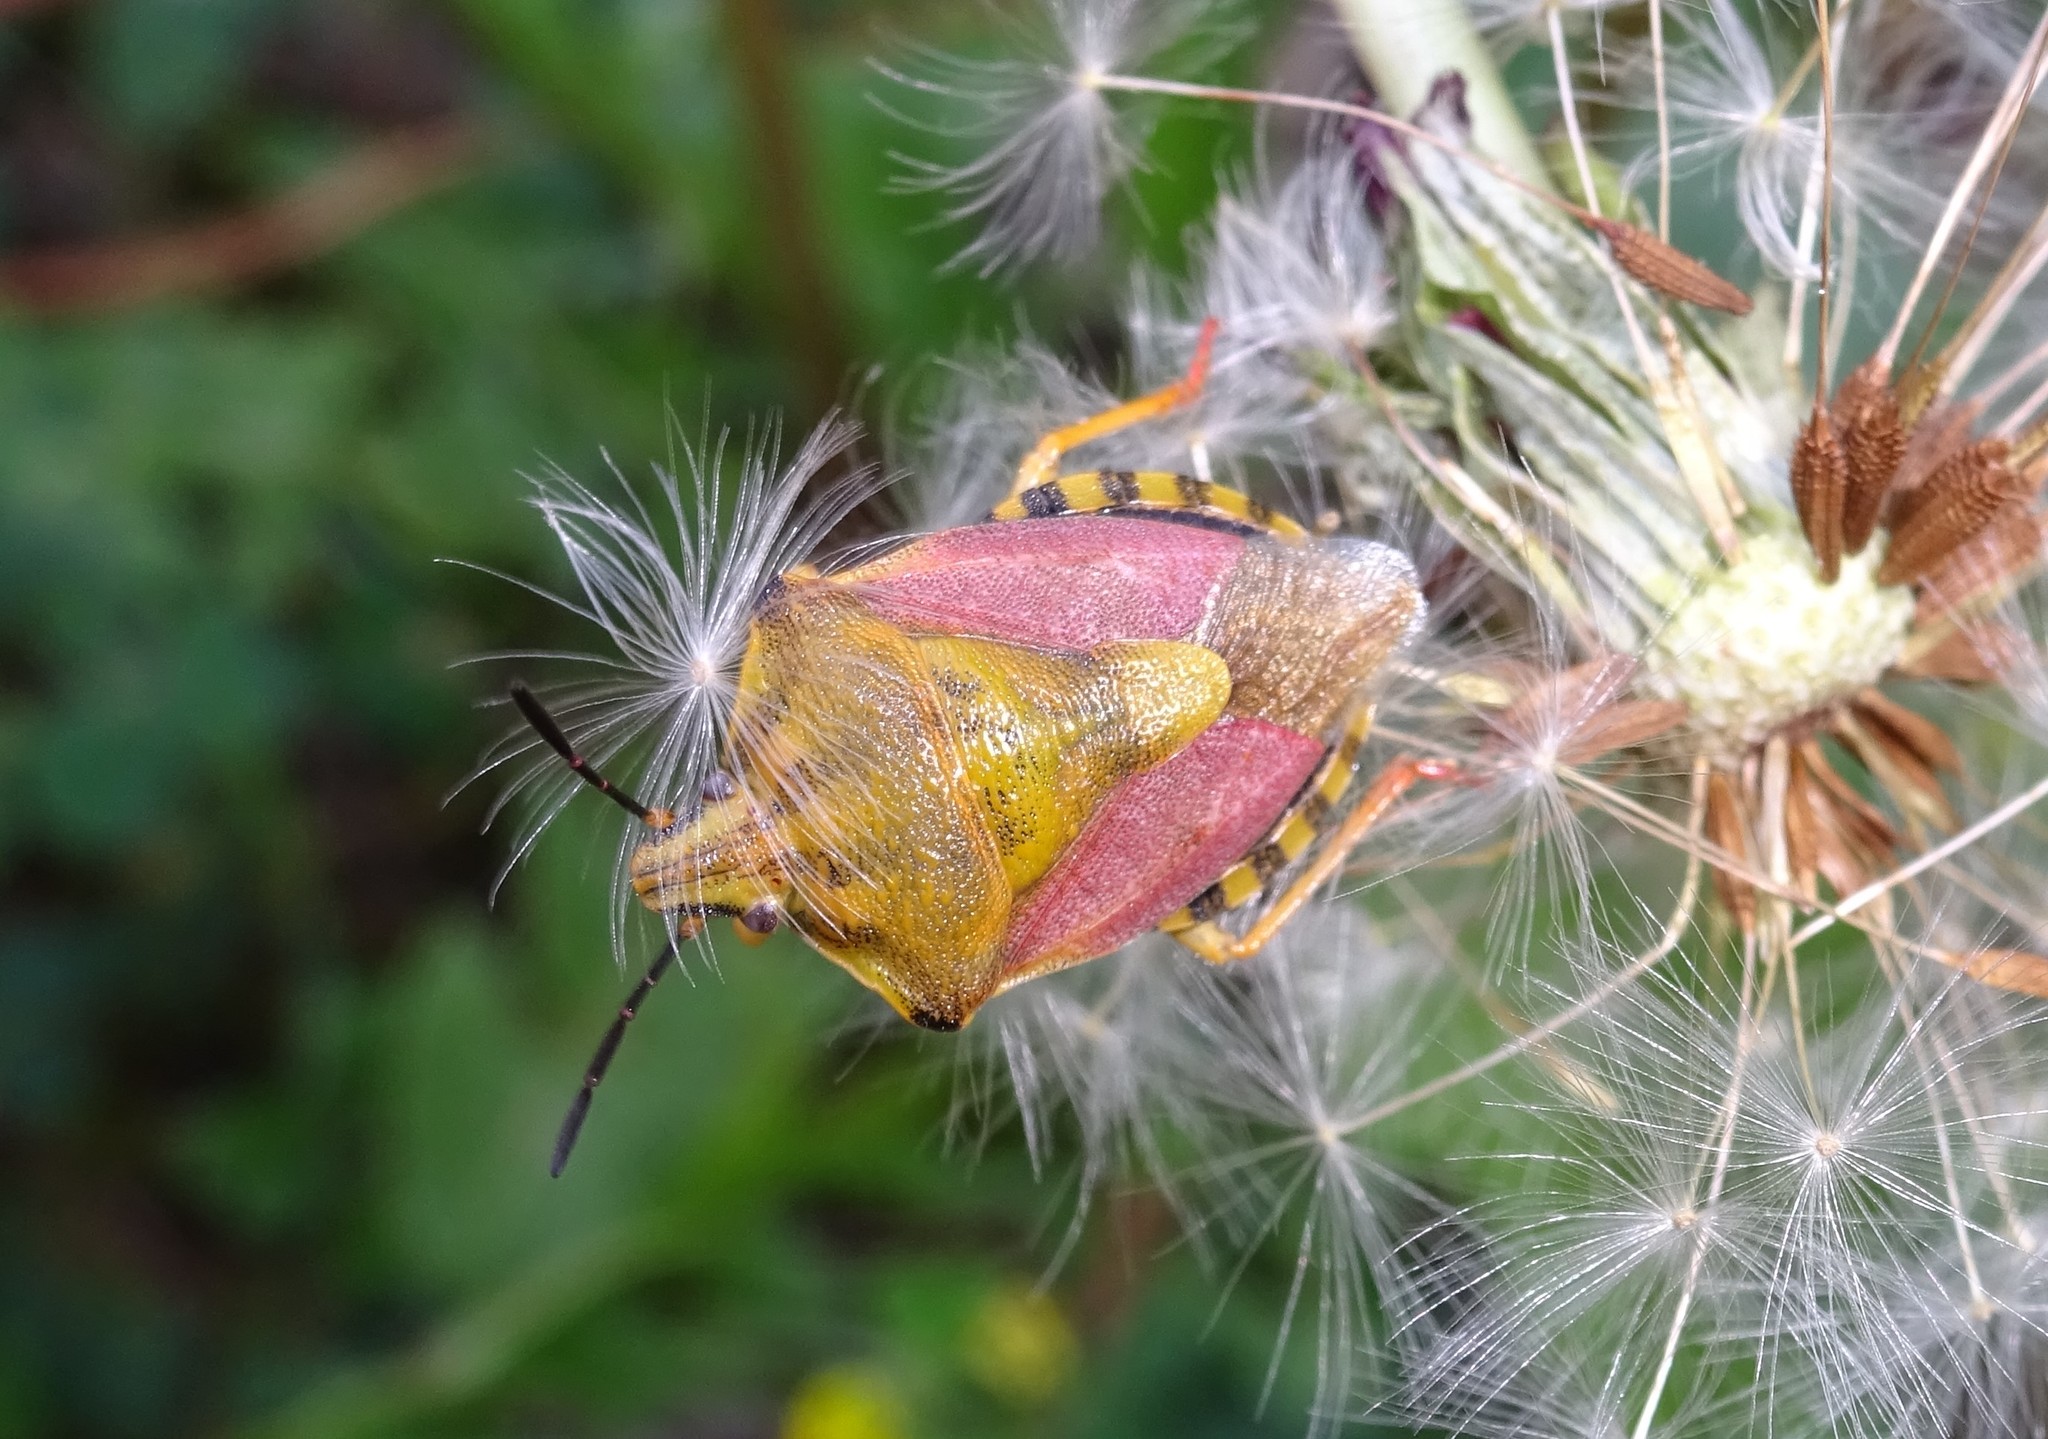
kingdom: Animalia
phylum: Arthropoda
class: Insecta
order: Hemiptera
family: Pentatomidae
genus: Carpocoris
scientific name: Carpocoris purpureipennis
